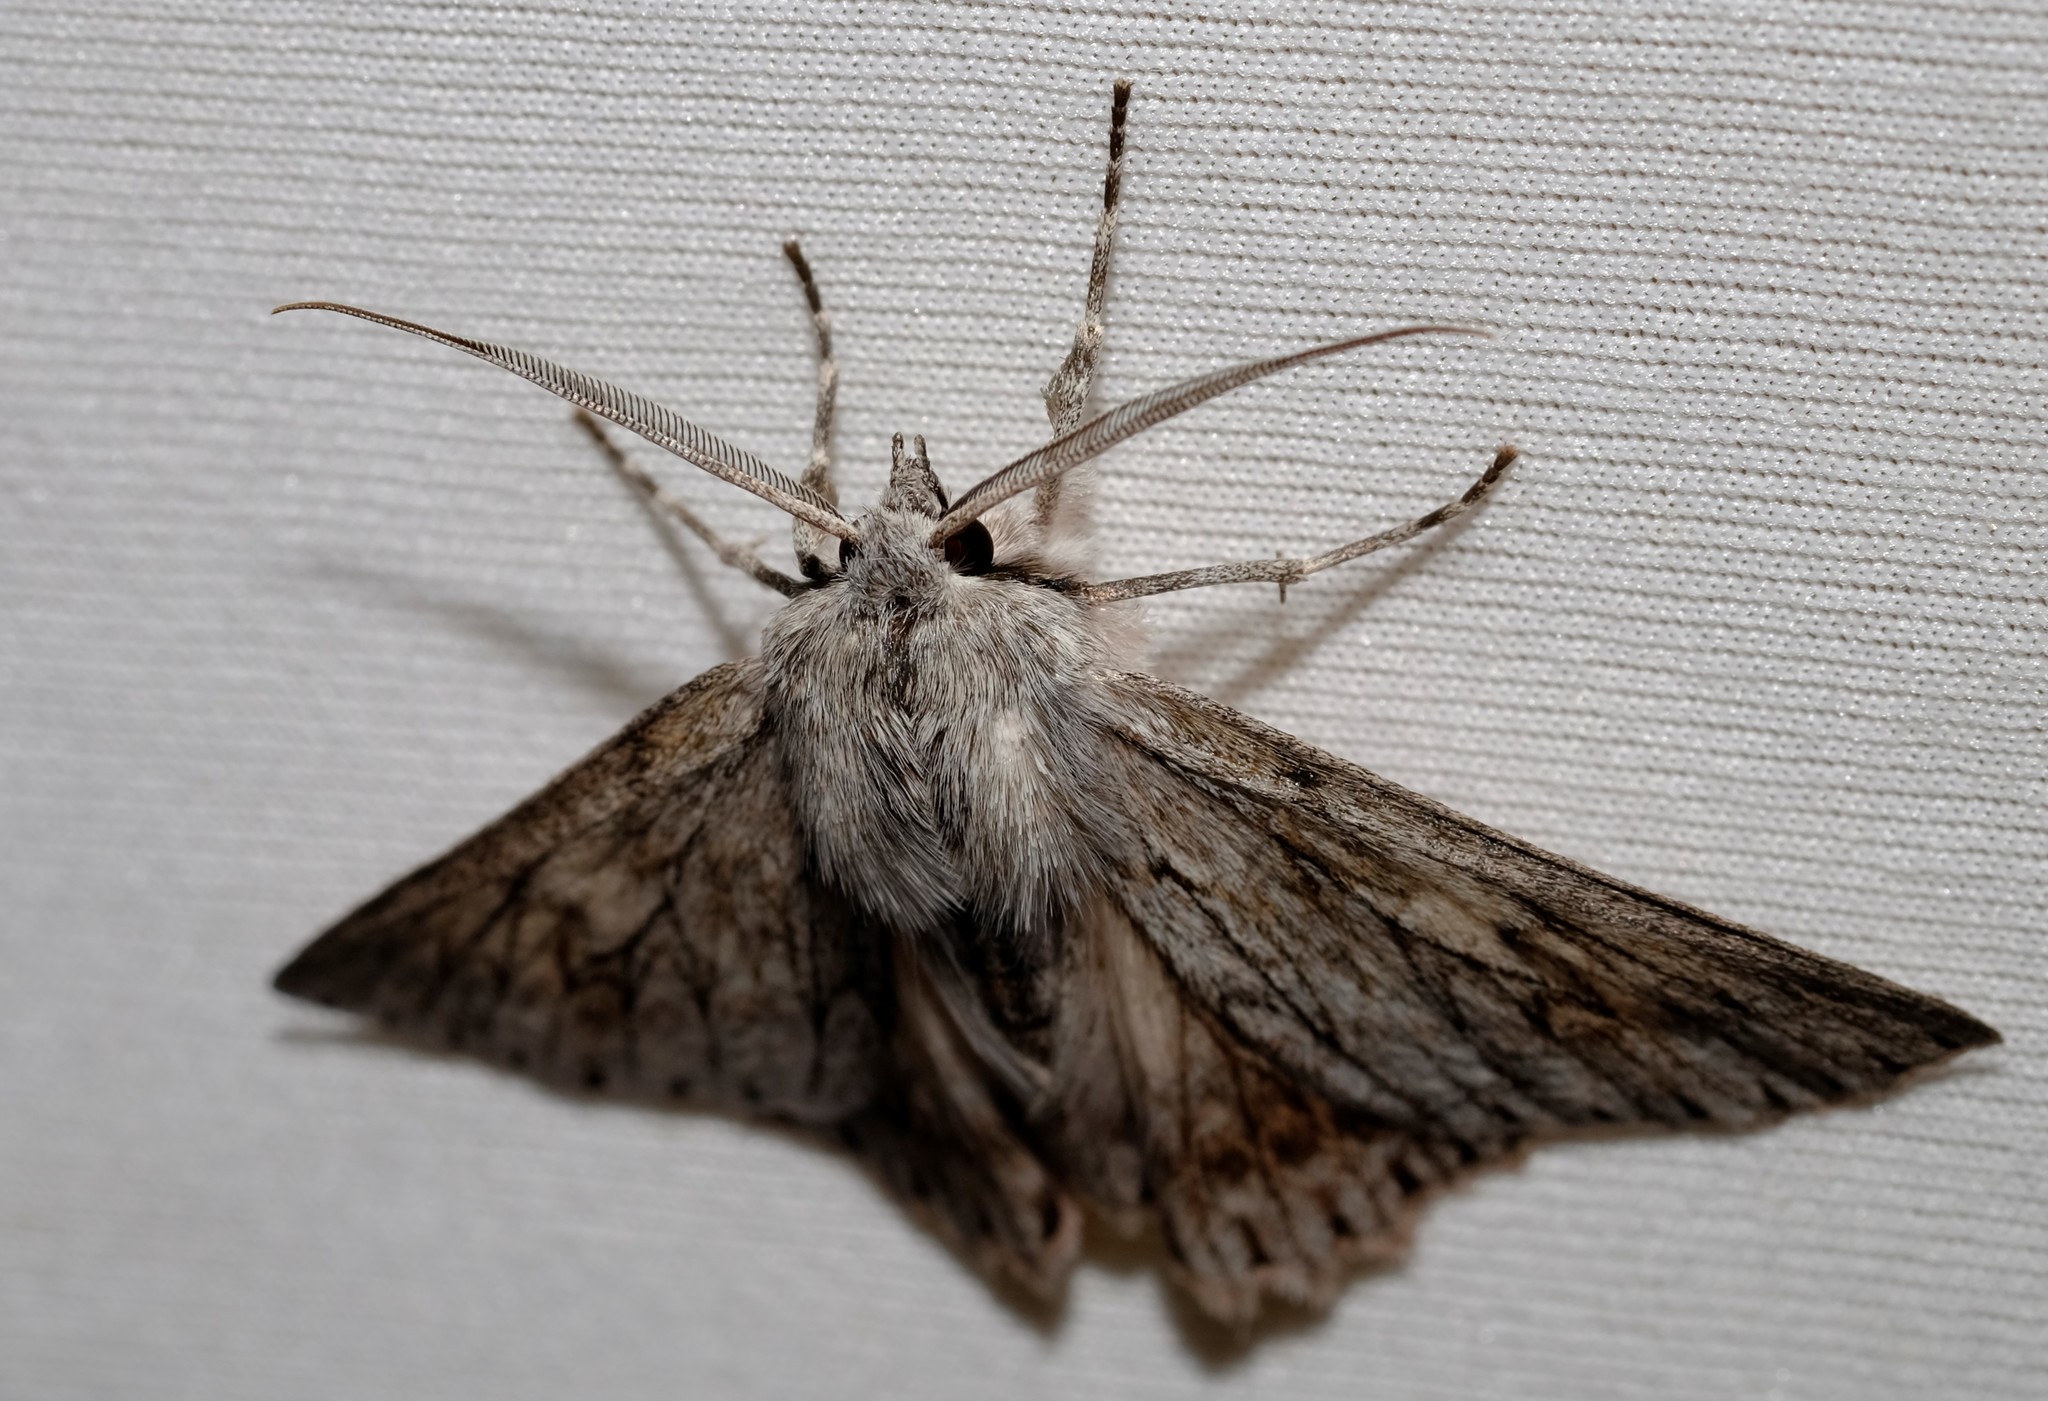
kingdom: Animalia
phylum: Arthropoda
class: Insecta
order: Lepidoptera
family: Geometridae
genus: Cyneoterpna
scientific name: Cyneoterpna wilsoni
